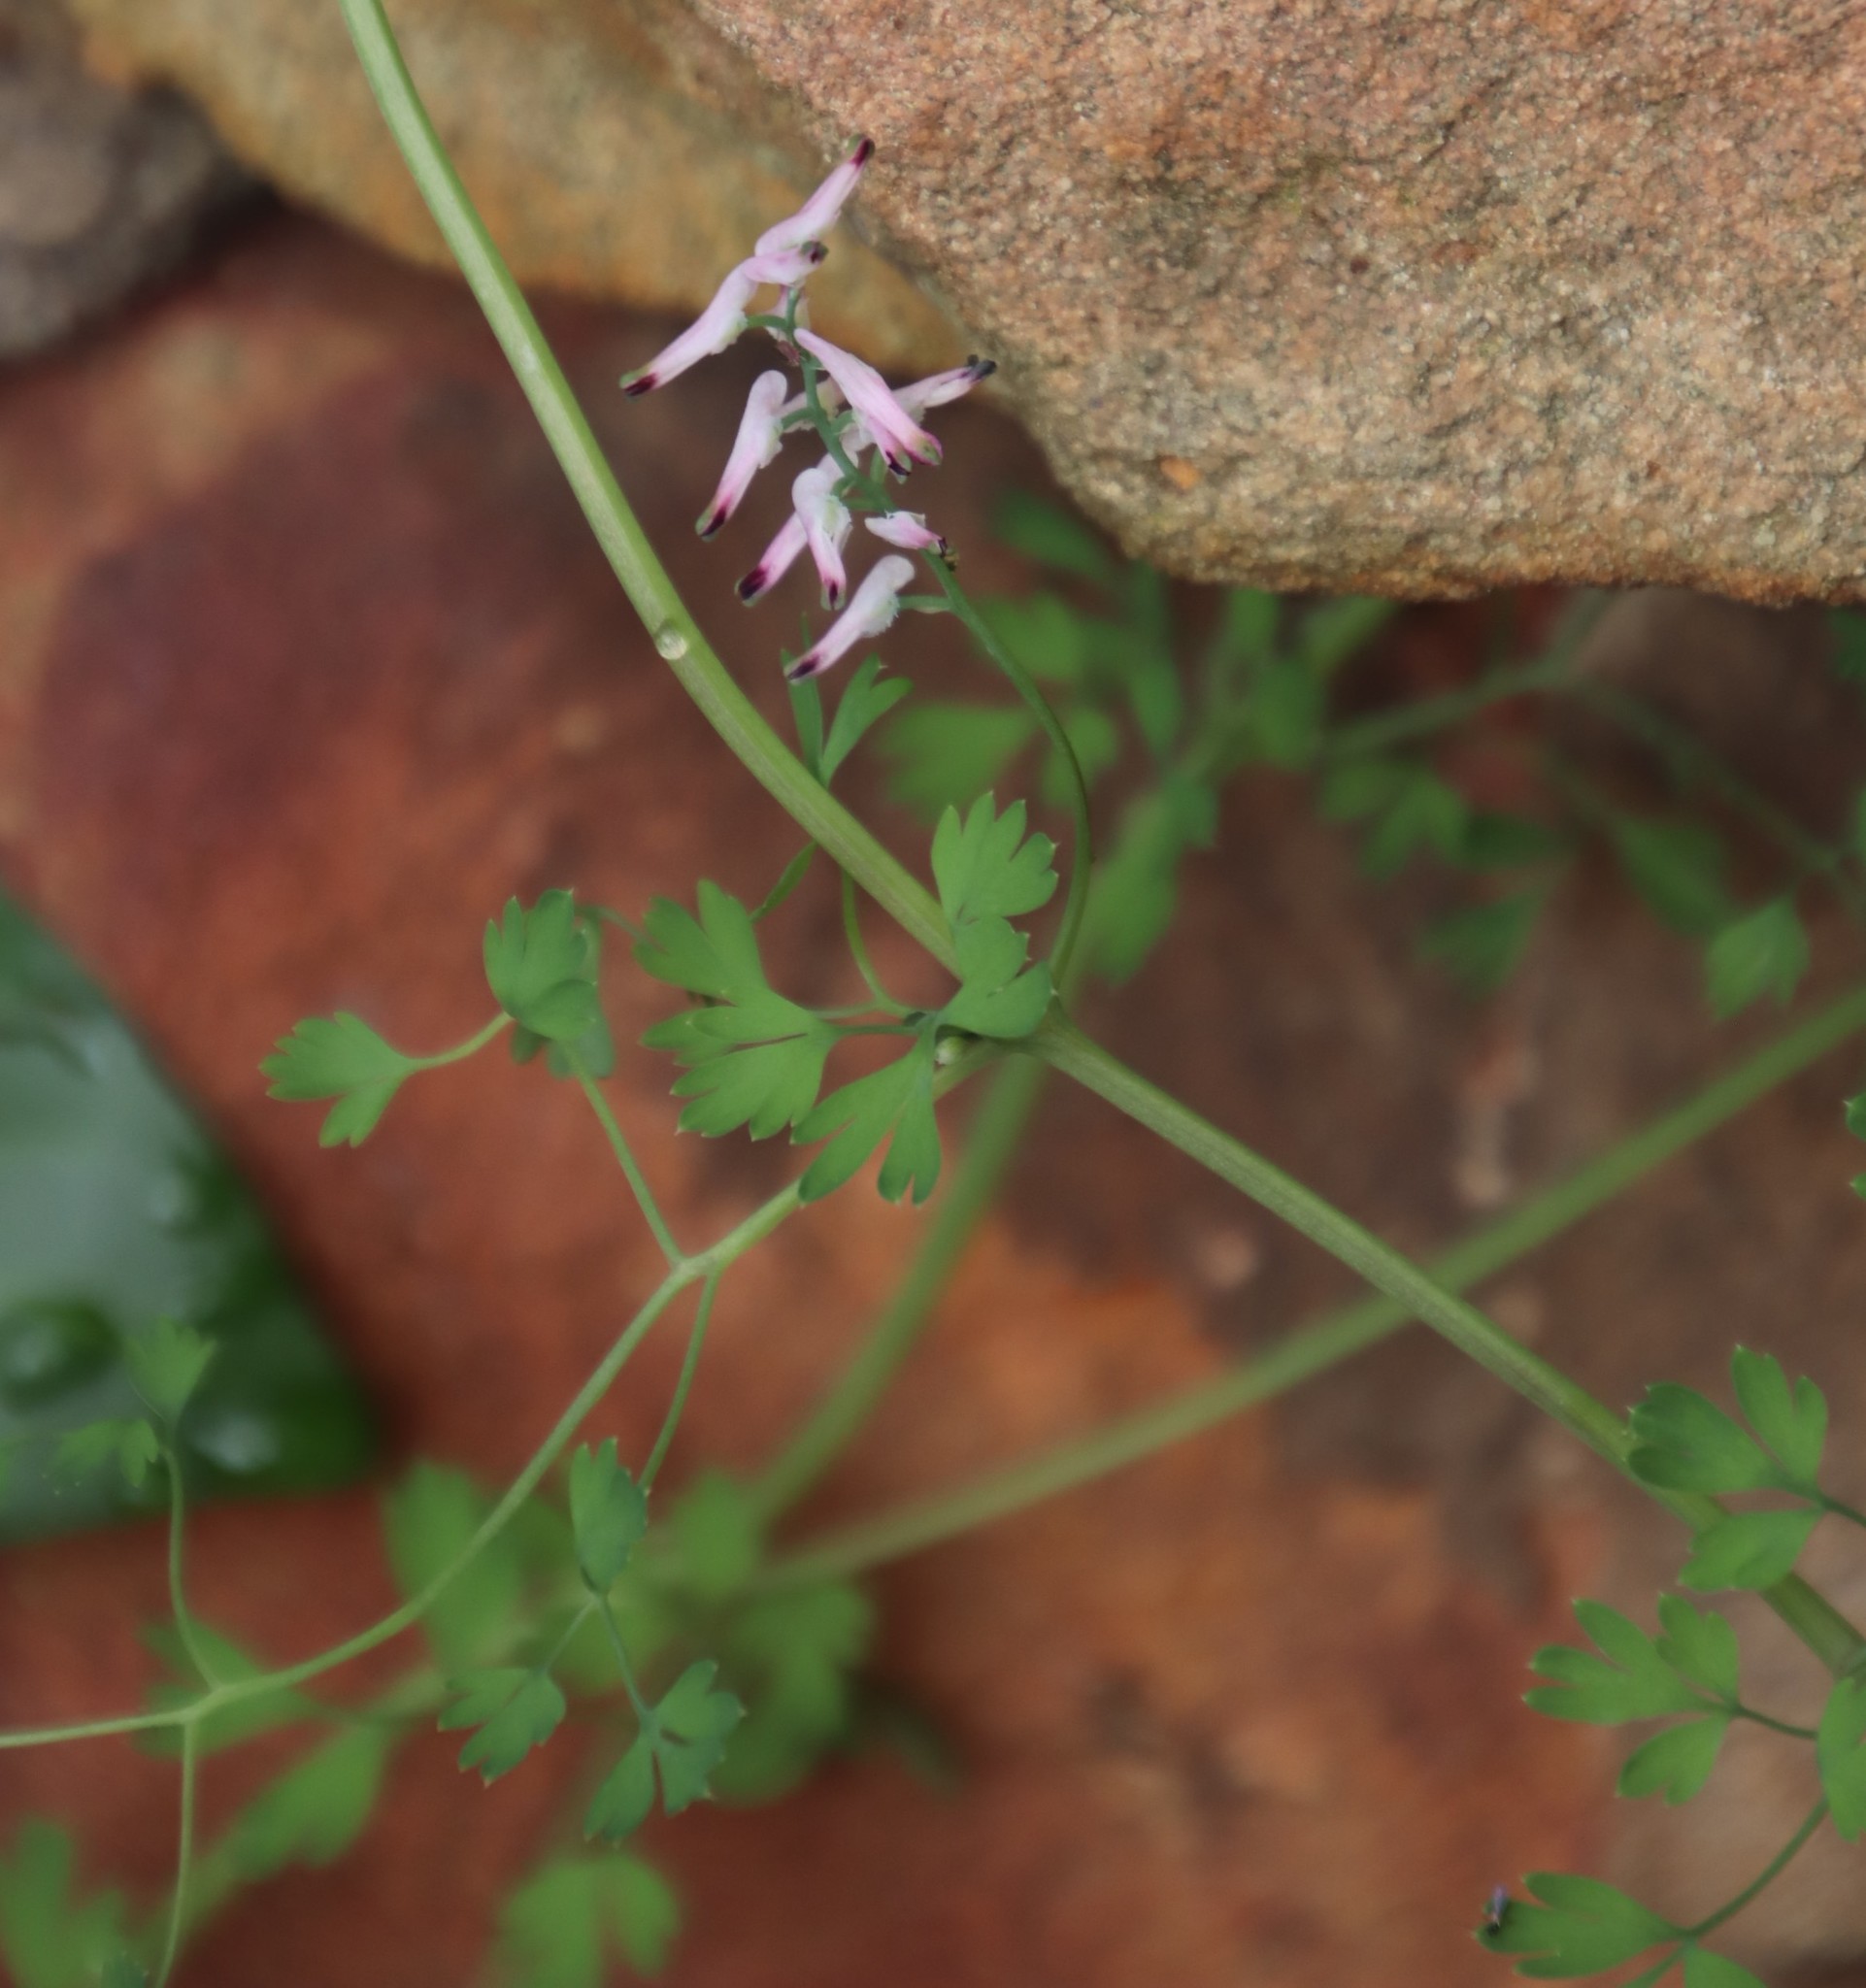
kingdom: Plantae
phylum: Tracheophyta
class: Magnoliopsida
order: Ranunculales
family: Papaveraceae
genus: Fumaria
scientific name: Fumaria muralis
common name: Common ramping-fumitory
